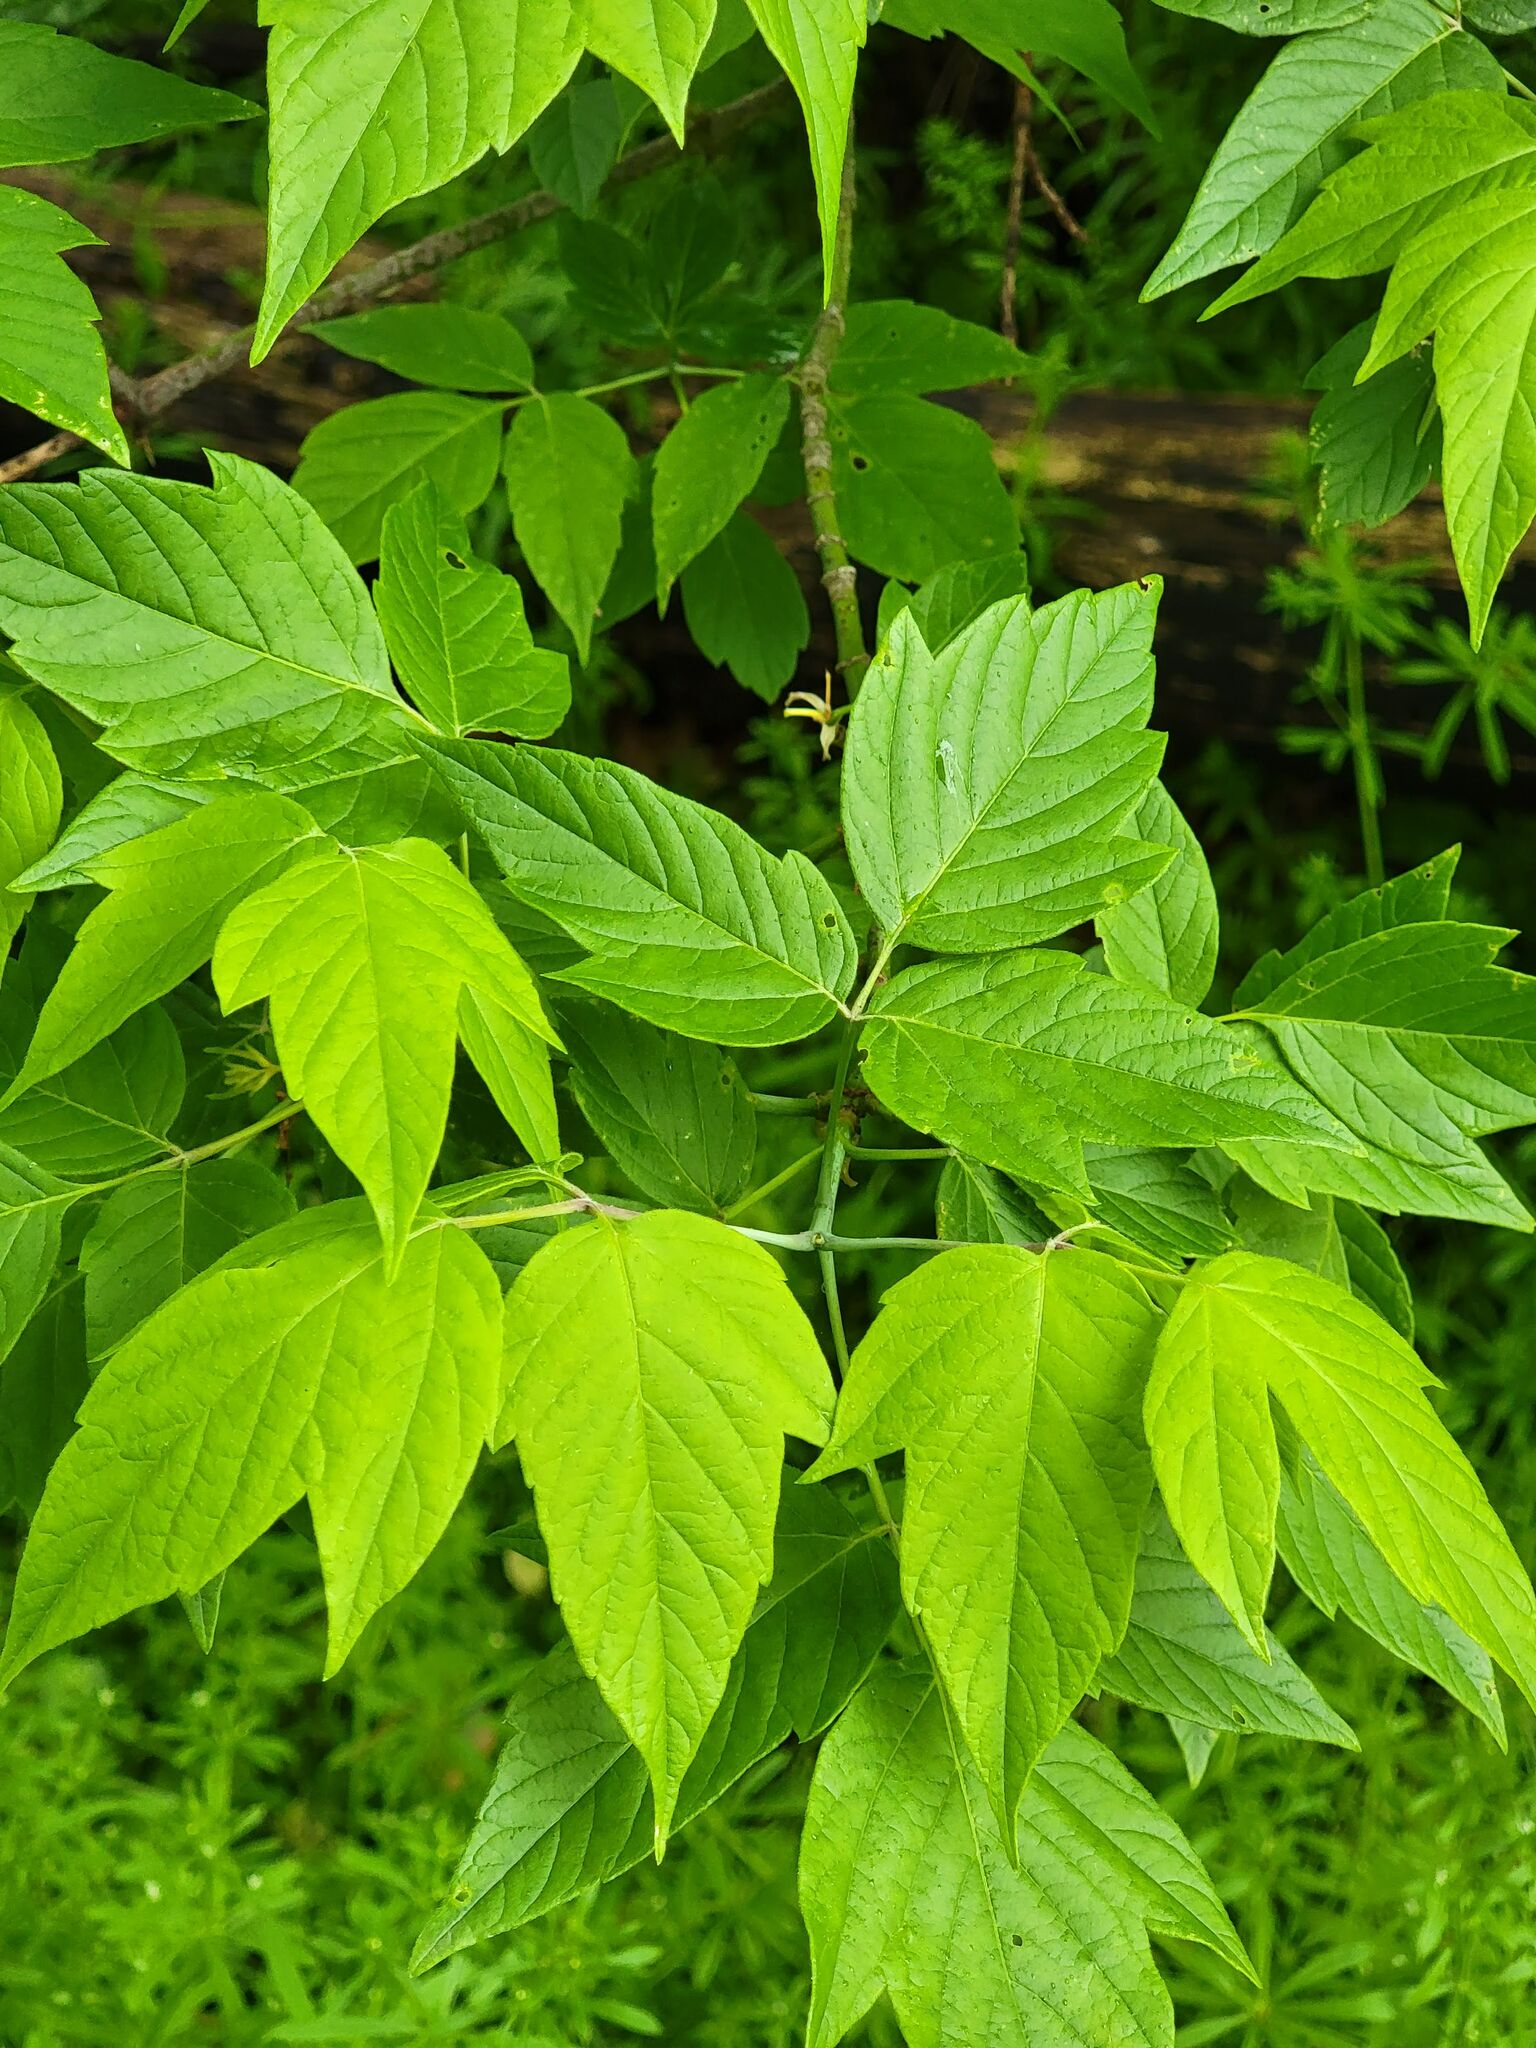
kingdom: Plantae
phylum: Tracheophyta
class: Magnoliopsida
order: Sapindales
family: Sapindaceae
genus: Acer
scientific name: Acer negundo
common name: Ashleaf maple
